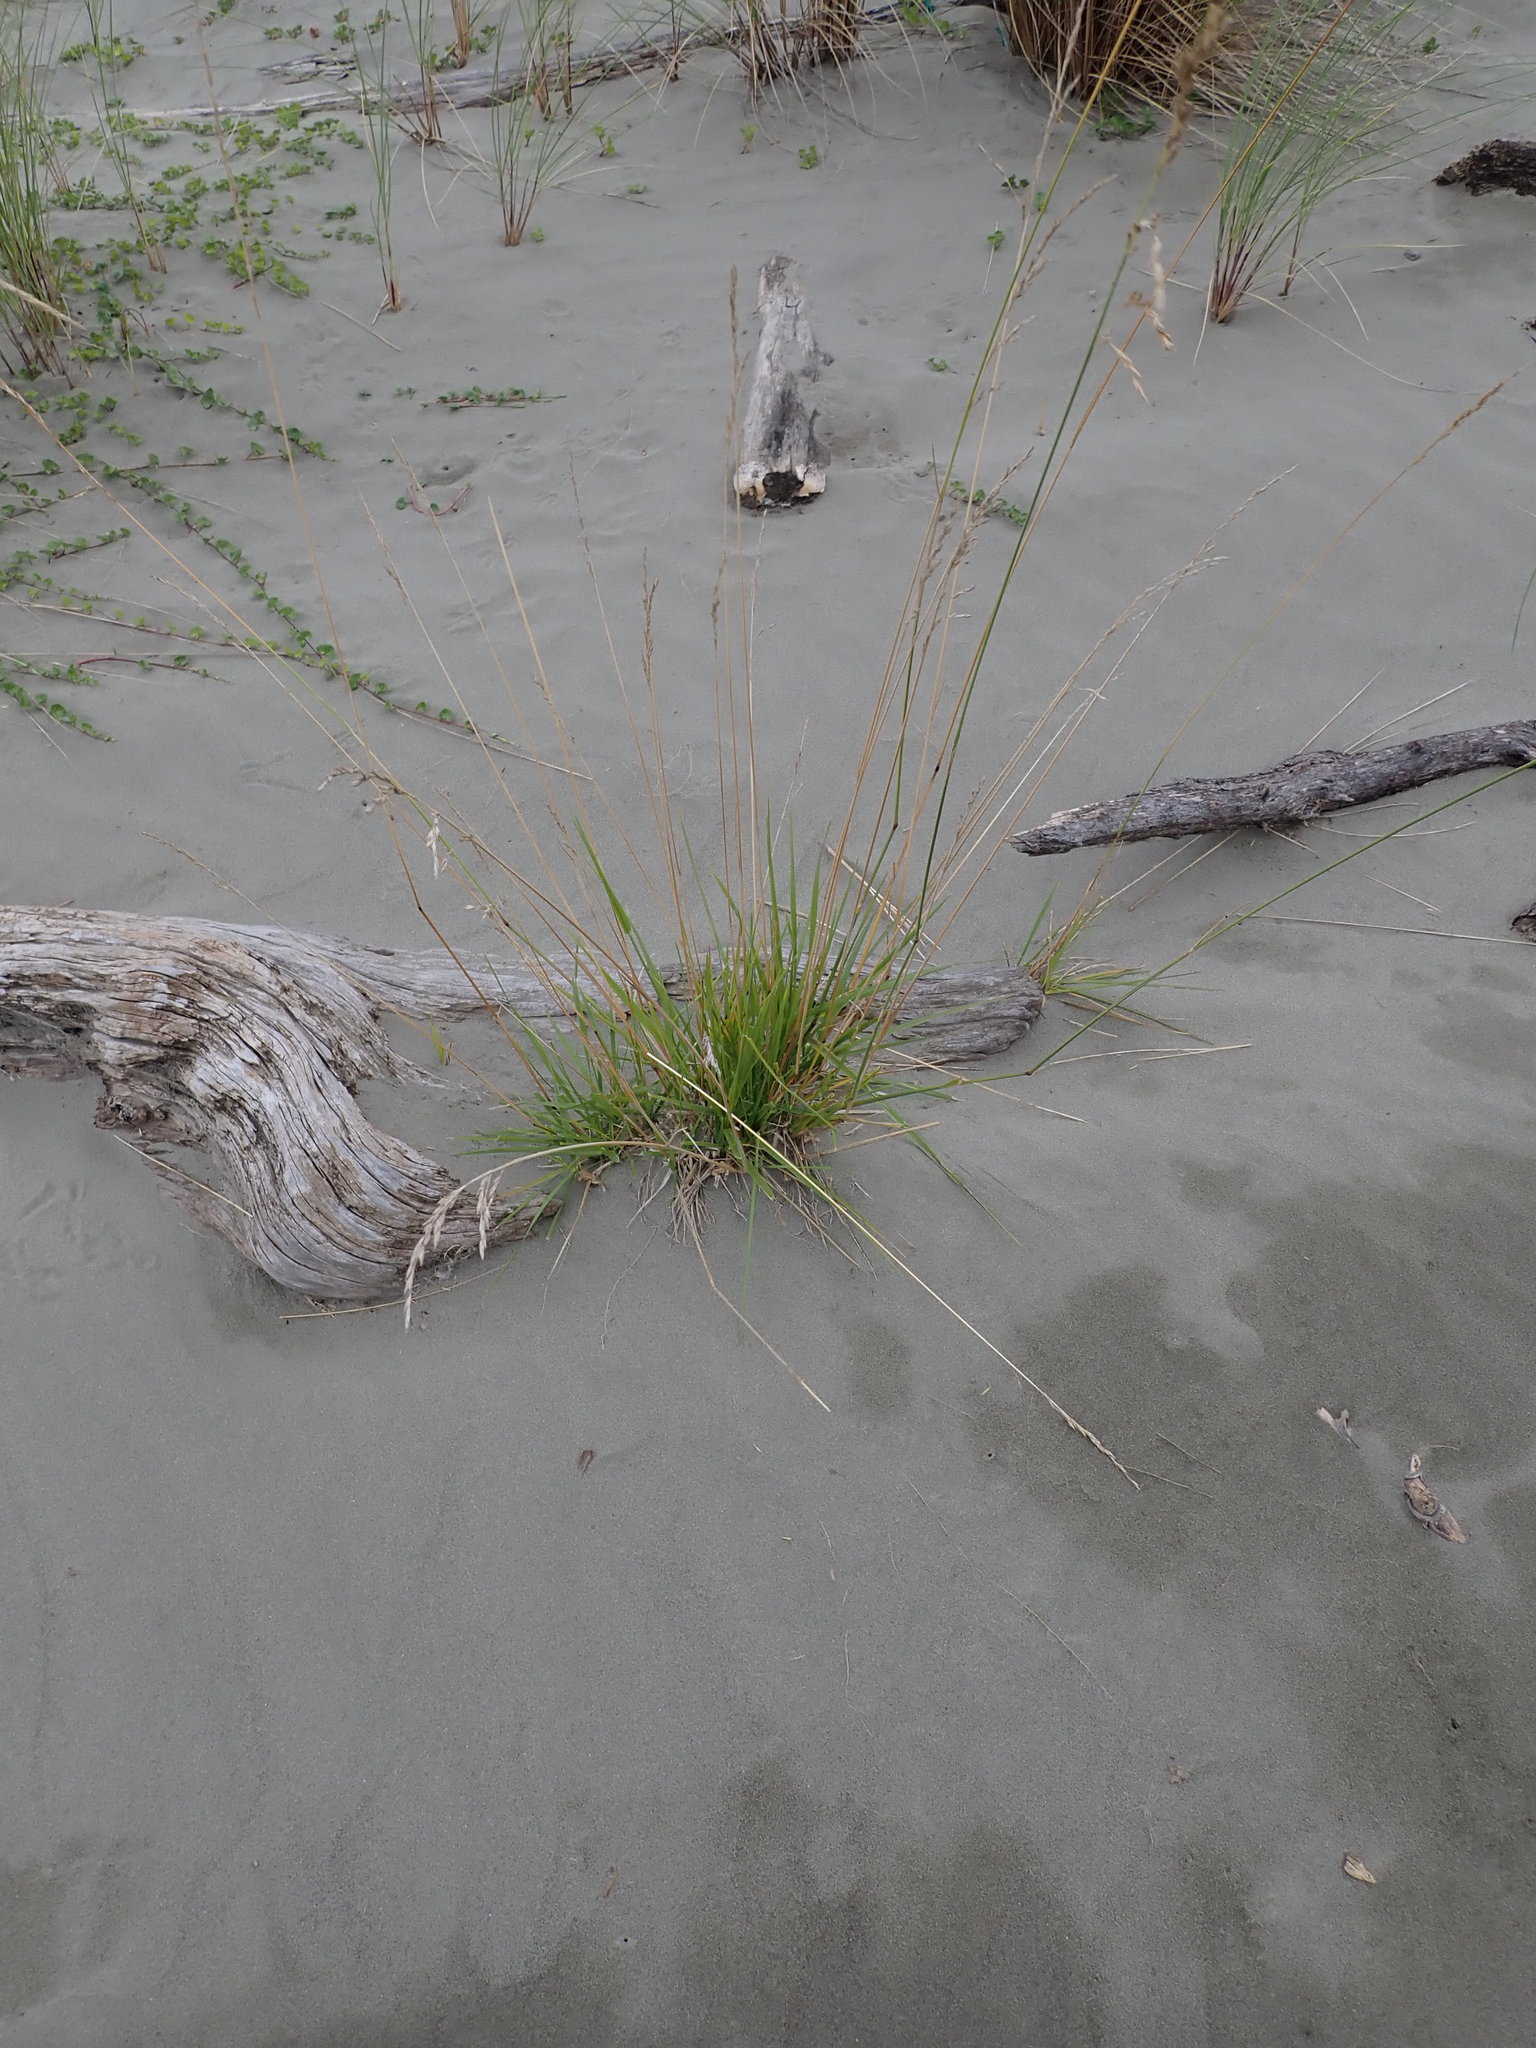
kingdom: Plantae
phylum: Tracheophyta
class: Liliopsida
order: Poales
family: Poaceae
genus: Lolium
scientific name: Lolium arundinaceum
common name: Reed fescue
